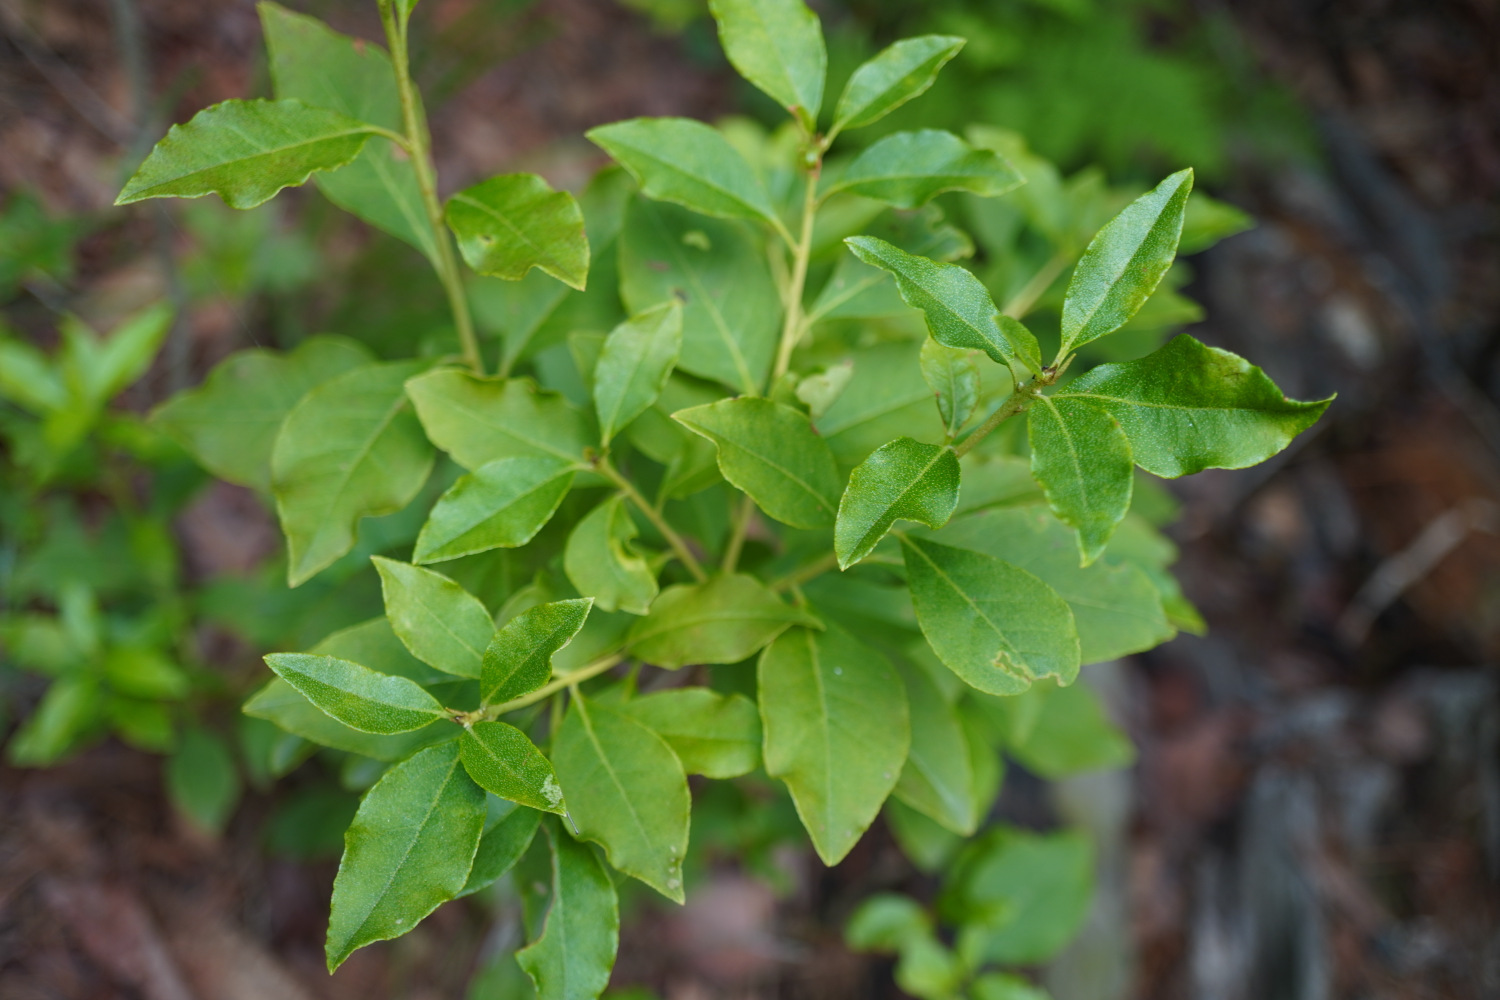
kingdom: Animalia
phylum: Arthropoda
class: Insecta
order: Hemiptera
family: Pentatomidae
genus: Halyomorpha
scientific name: Halyomorpha halys
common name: Brown marmorated stink bug
